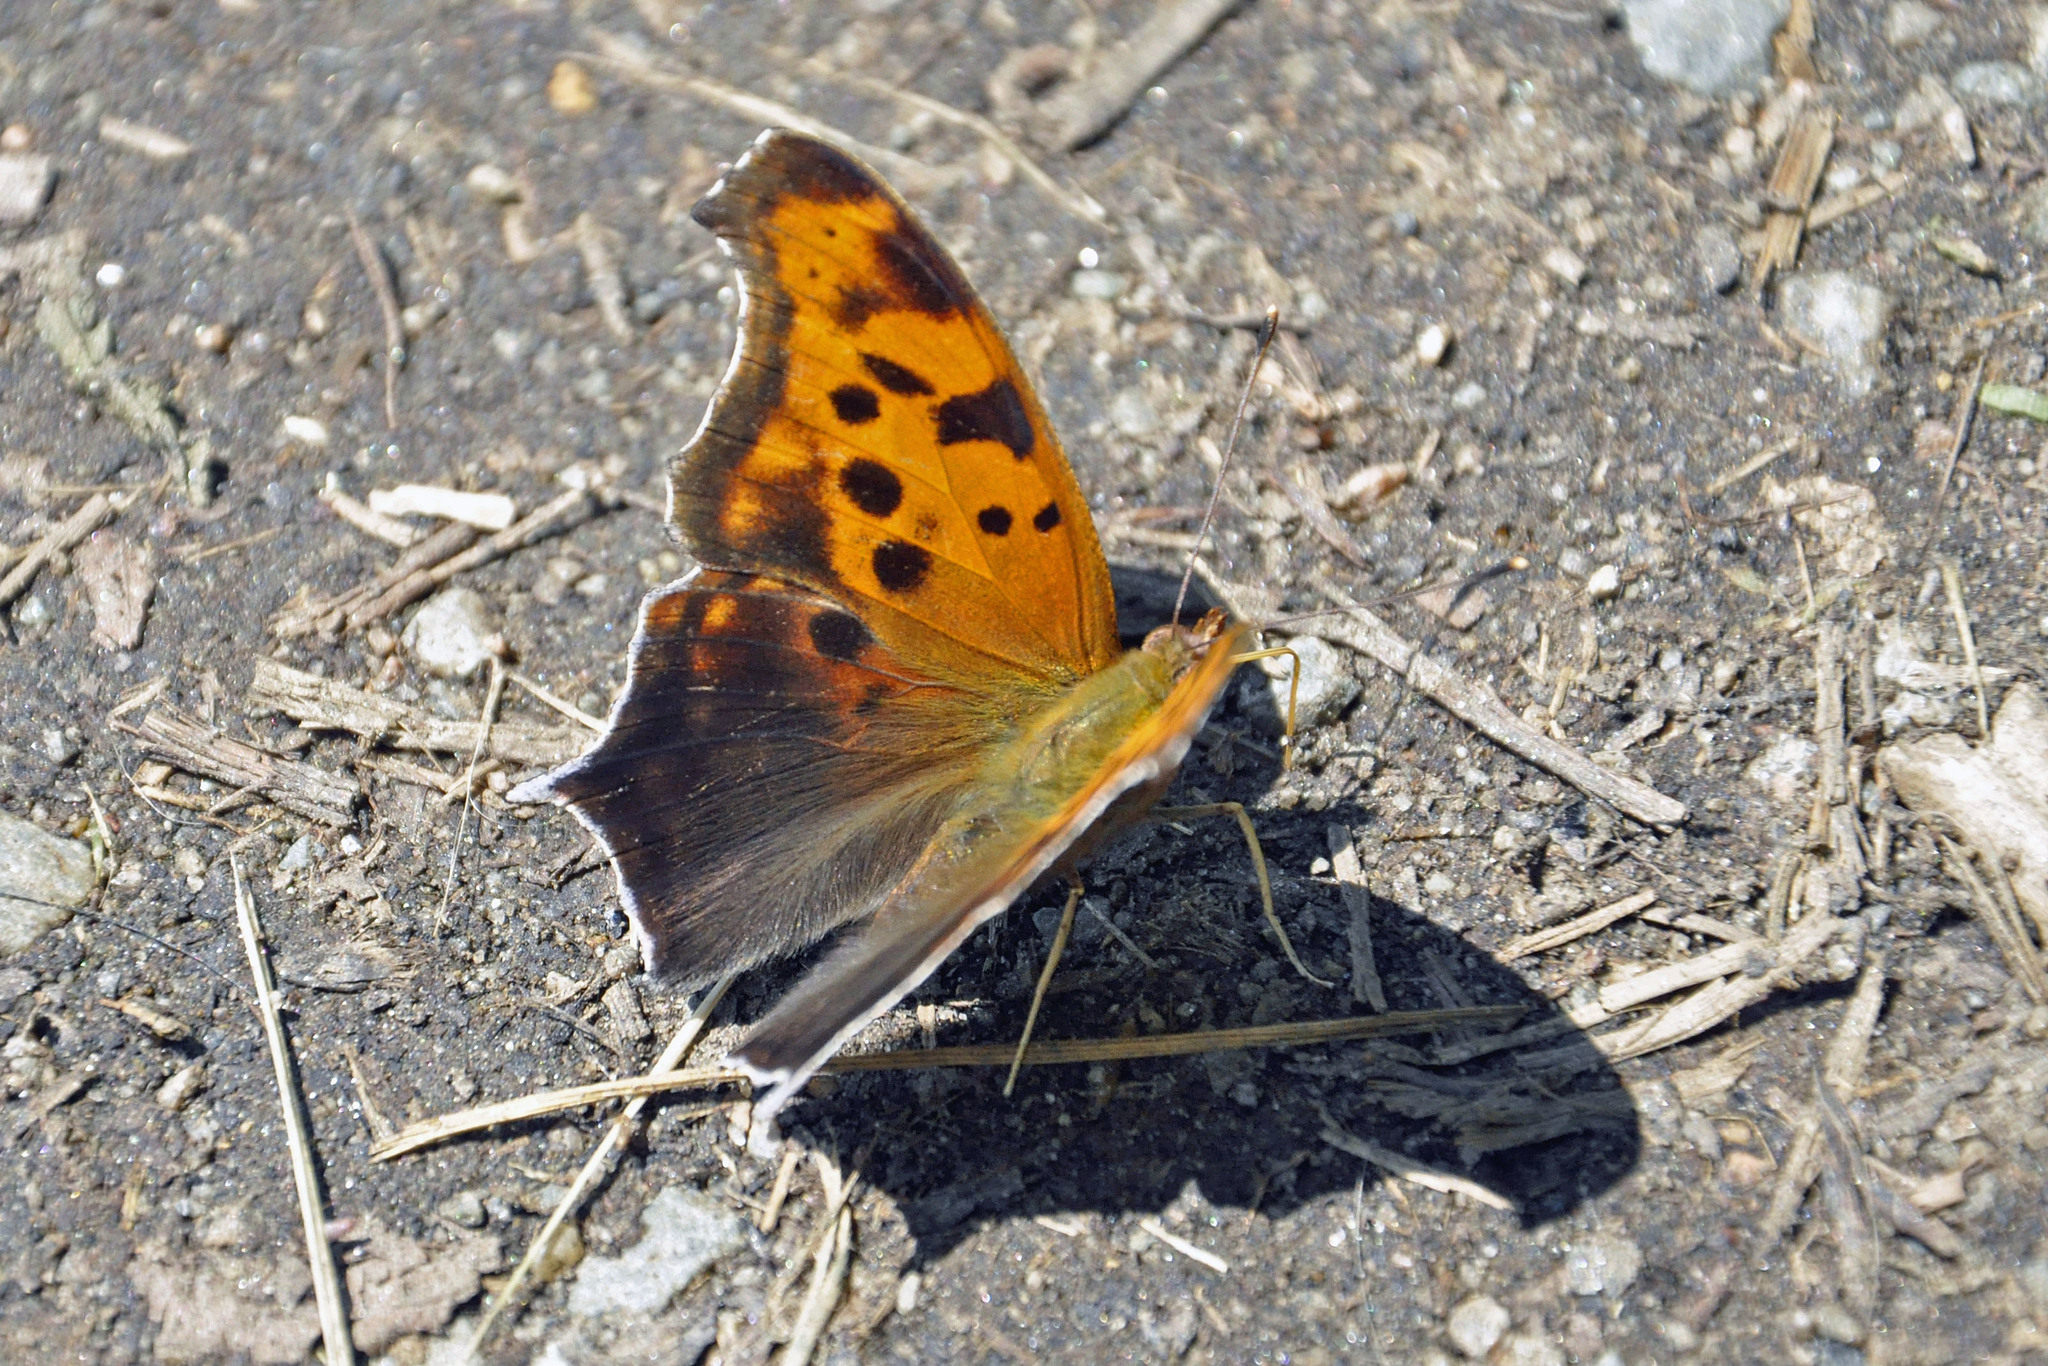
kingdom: Animalia
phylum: Arthropoda
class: Insecta
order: Lepidoptera
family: Nymphalidae
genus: Polygonia
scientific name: Polygonia interrogationis
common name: Question mark
